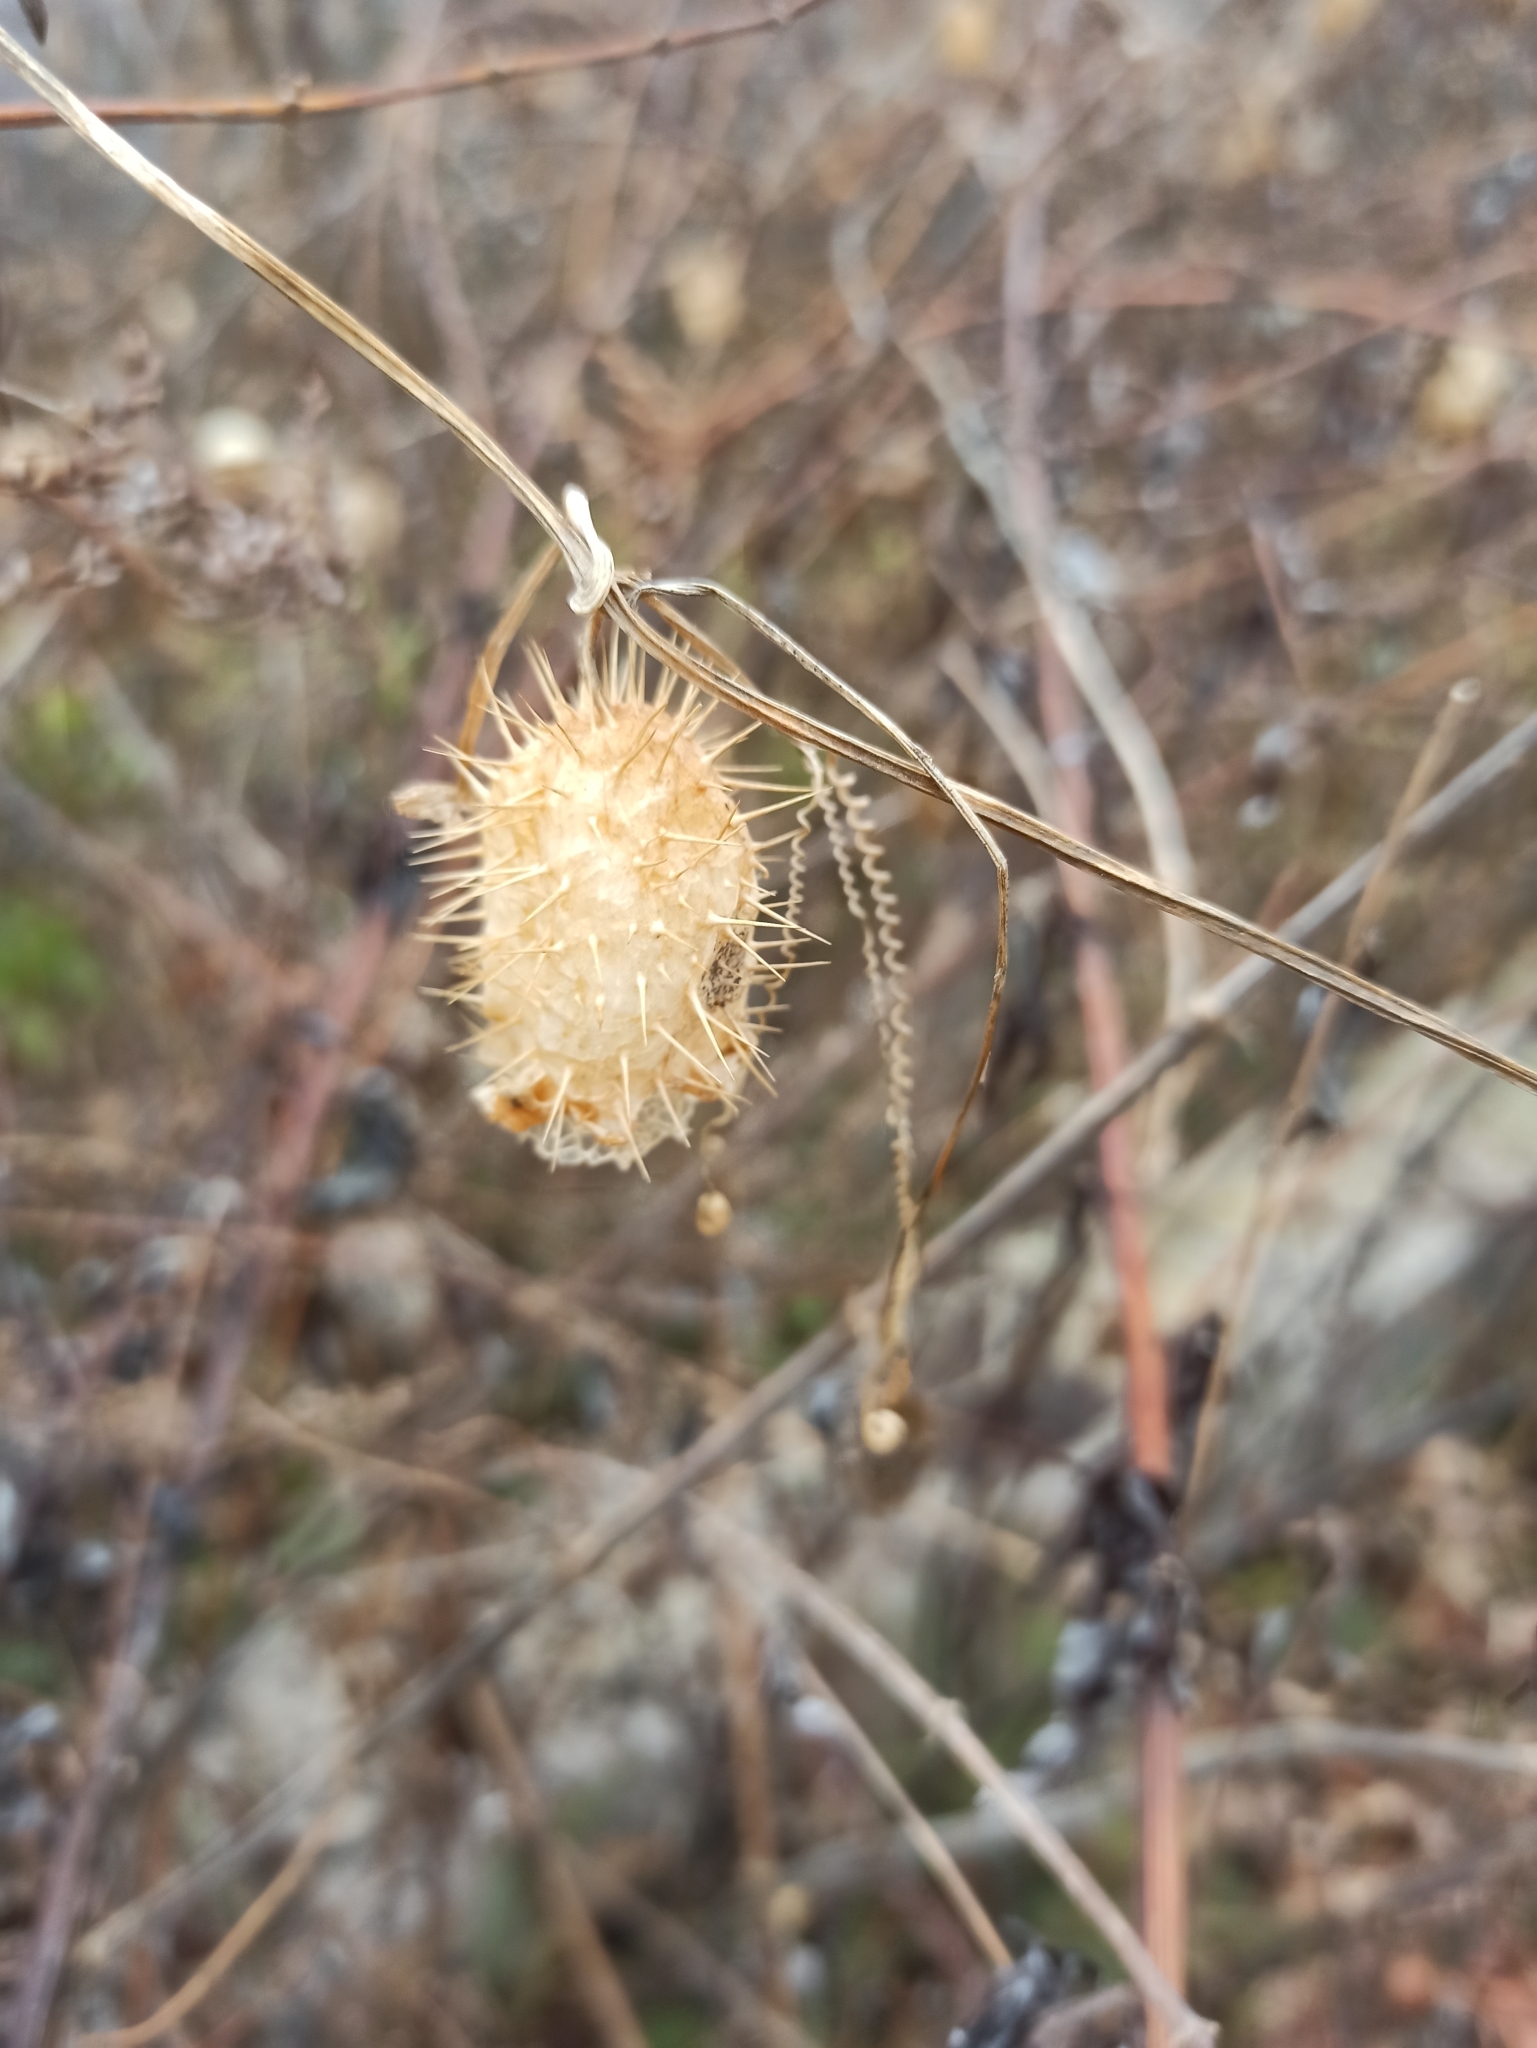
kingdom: Plantae
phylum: Tracheophyta
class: Magnoliopsida
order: Cucurbitales
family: Cucurbitaceae
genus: Echinocystis
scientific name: Echinocystis lobata
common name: Wild cucumber
